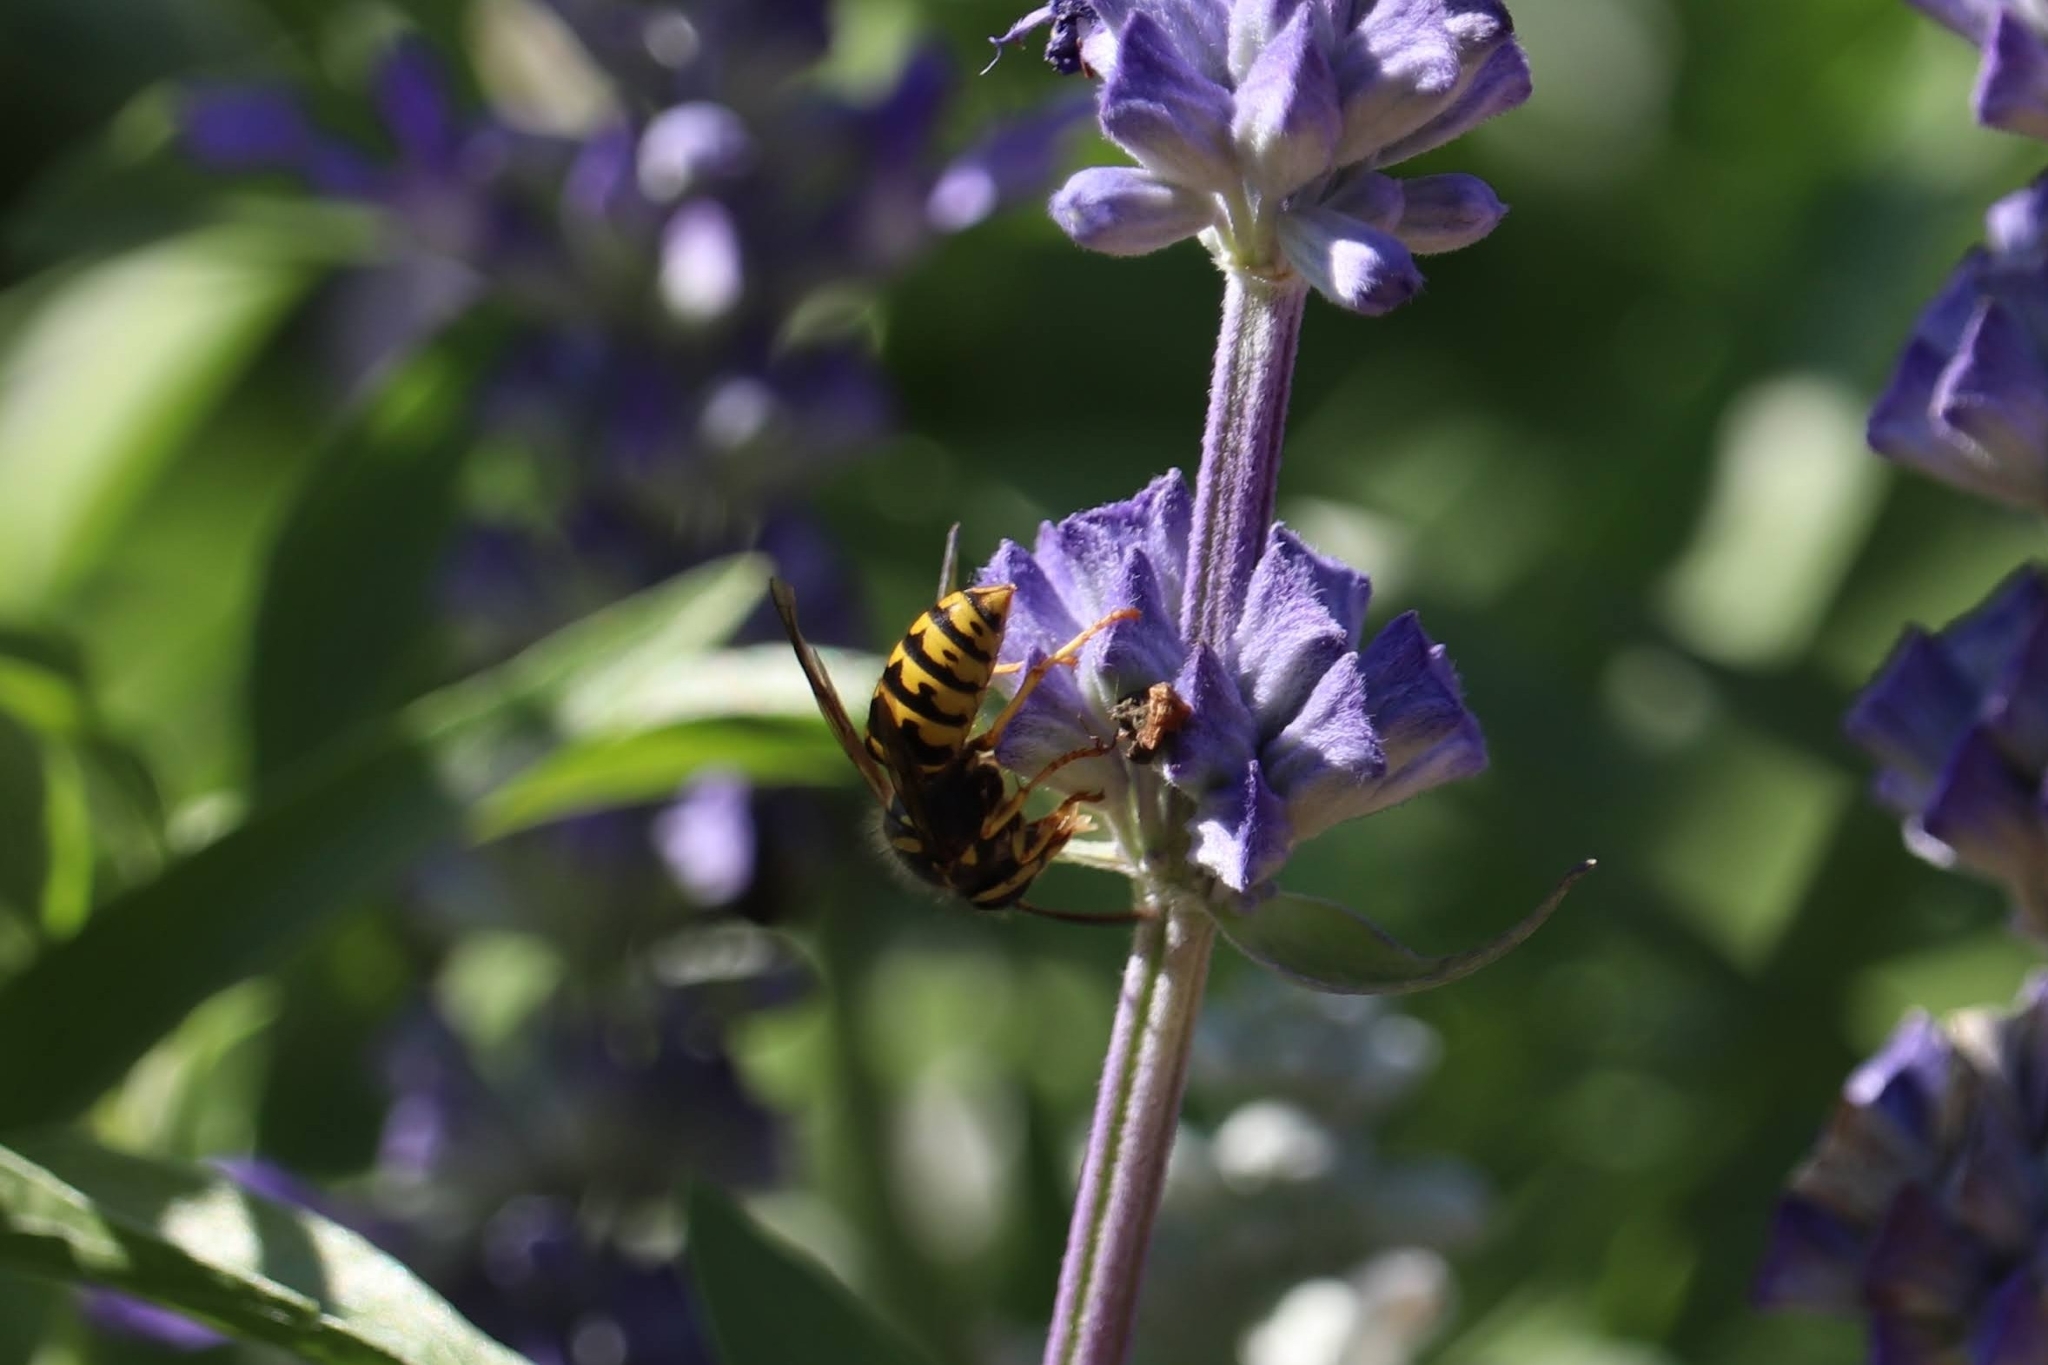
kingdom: Animalia
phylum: Arthropoda
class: Insecta
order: Hymenoptera
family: Vespidae
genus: Dolichovespula
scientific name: Dolichovespula arenaria
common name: Aerial yellowjacket
